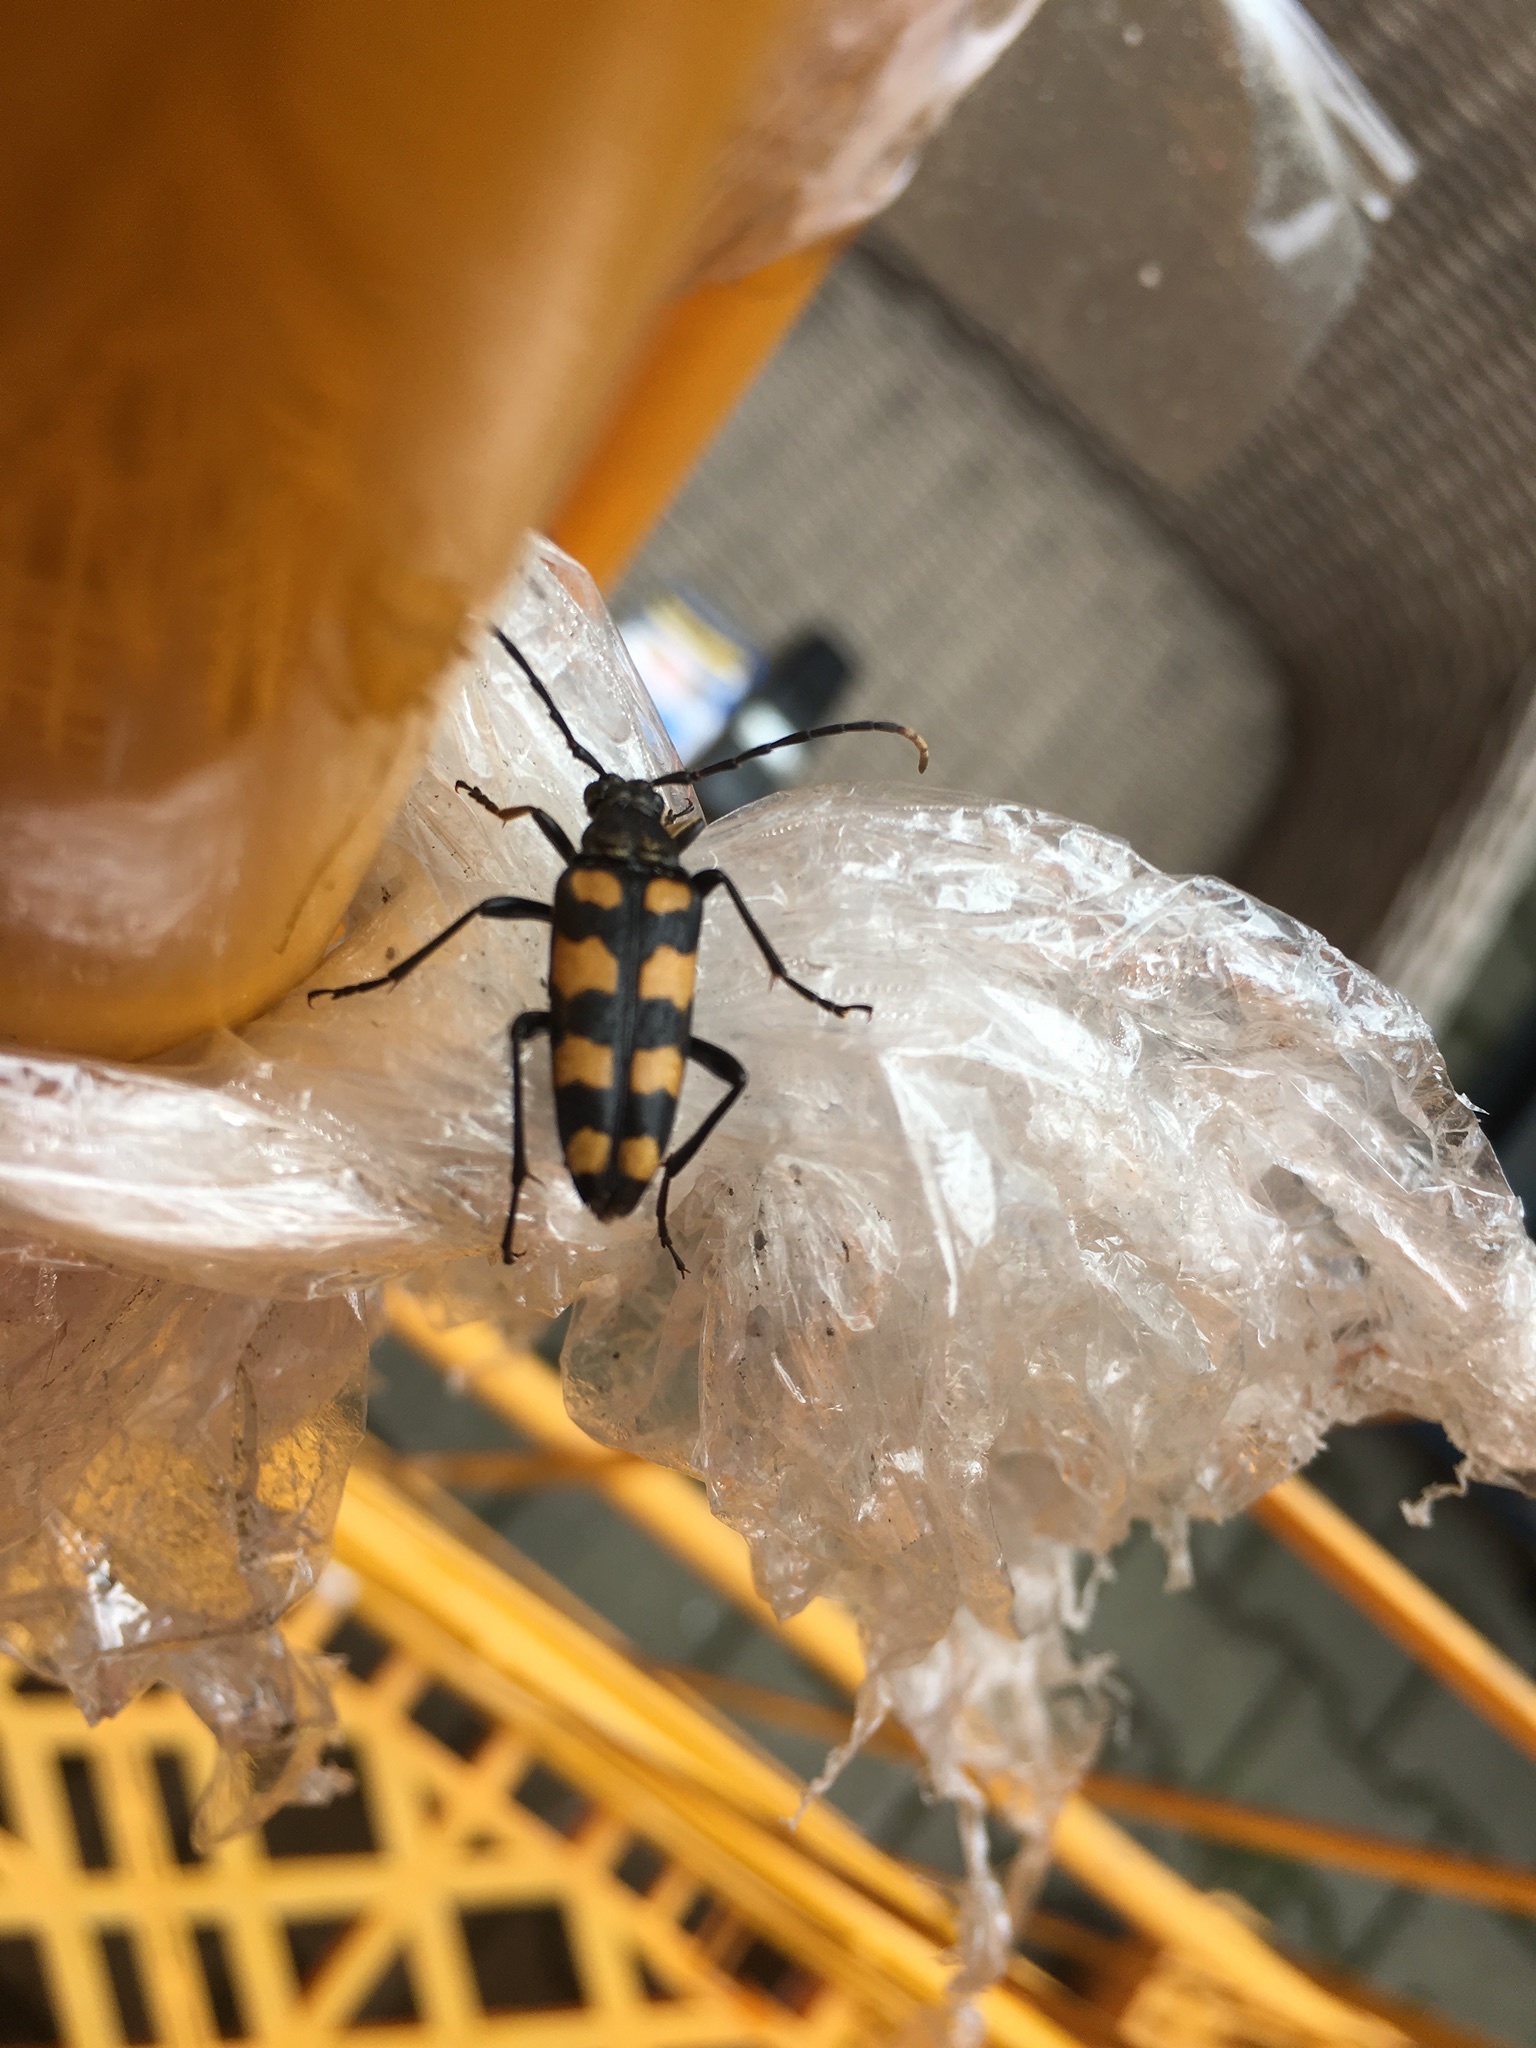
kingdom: Animalia
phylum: Arthropoda
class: Insecta
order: Coleoptera
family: Cerambycidae
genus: Leptura
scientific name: Leptura quadrifasciata
